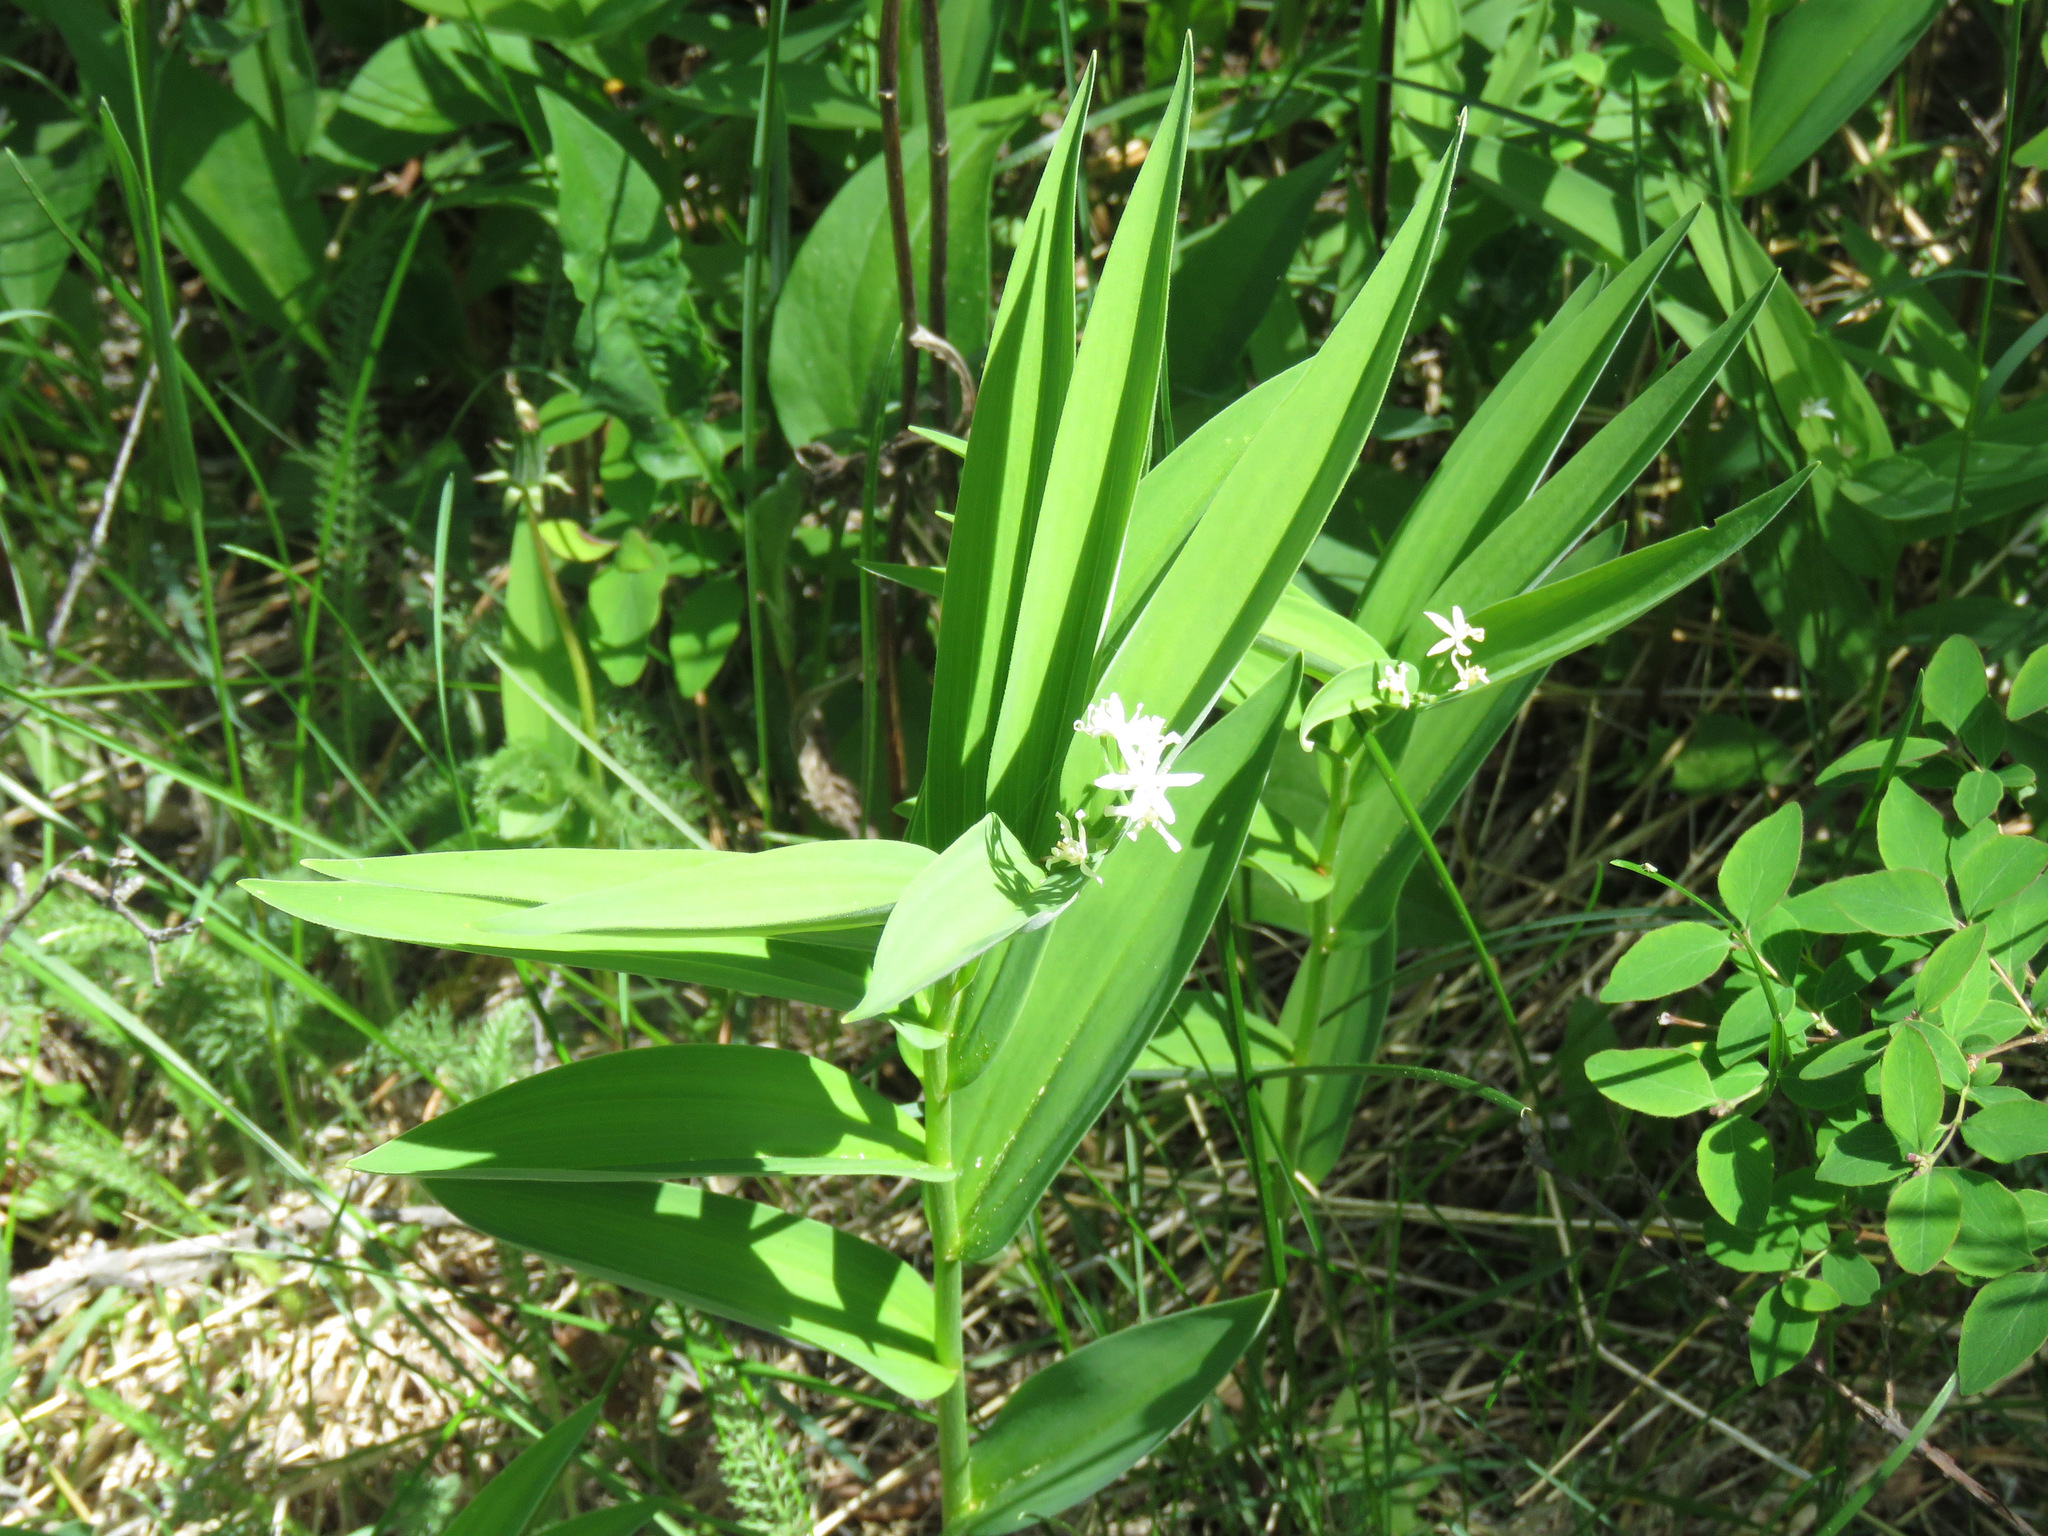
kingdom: Plantae
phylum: Tracheophyta
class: Liliopsida
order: Asparagales
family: Asparagaceae
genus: Maianthemum
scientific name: Maianthemum stellatum
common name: Little false solomon's seal
